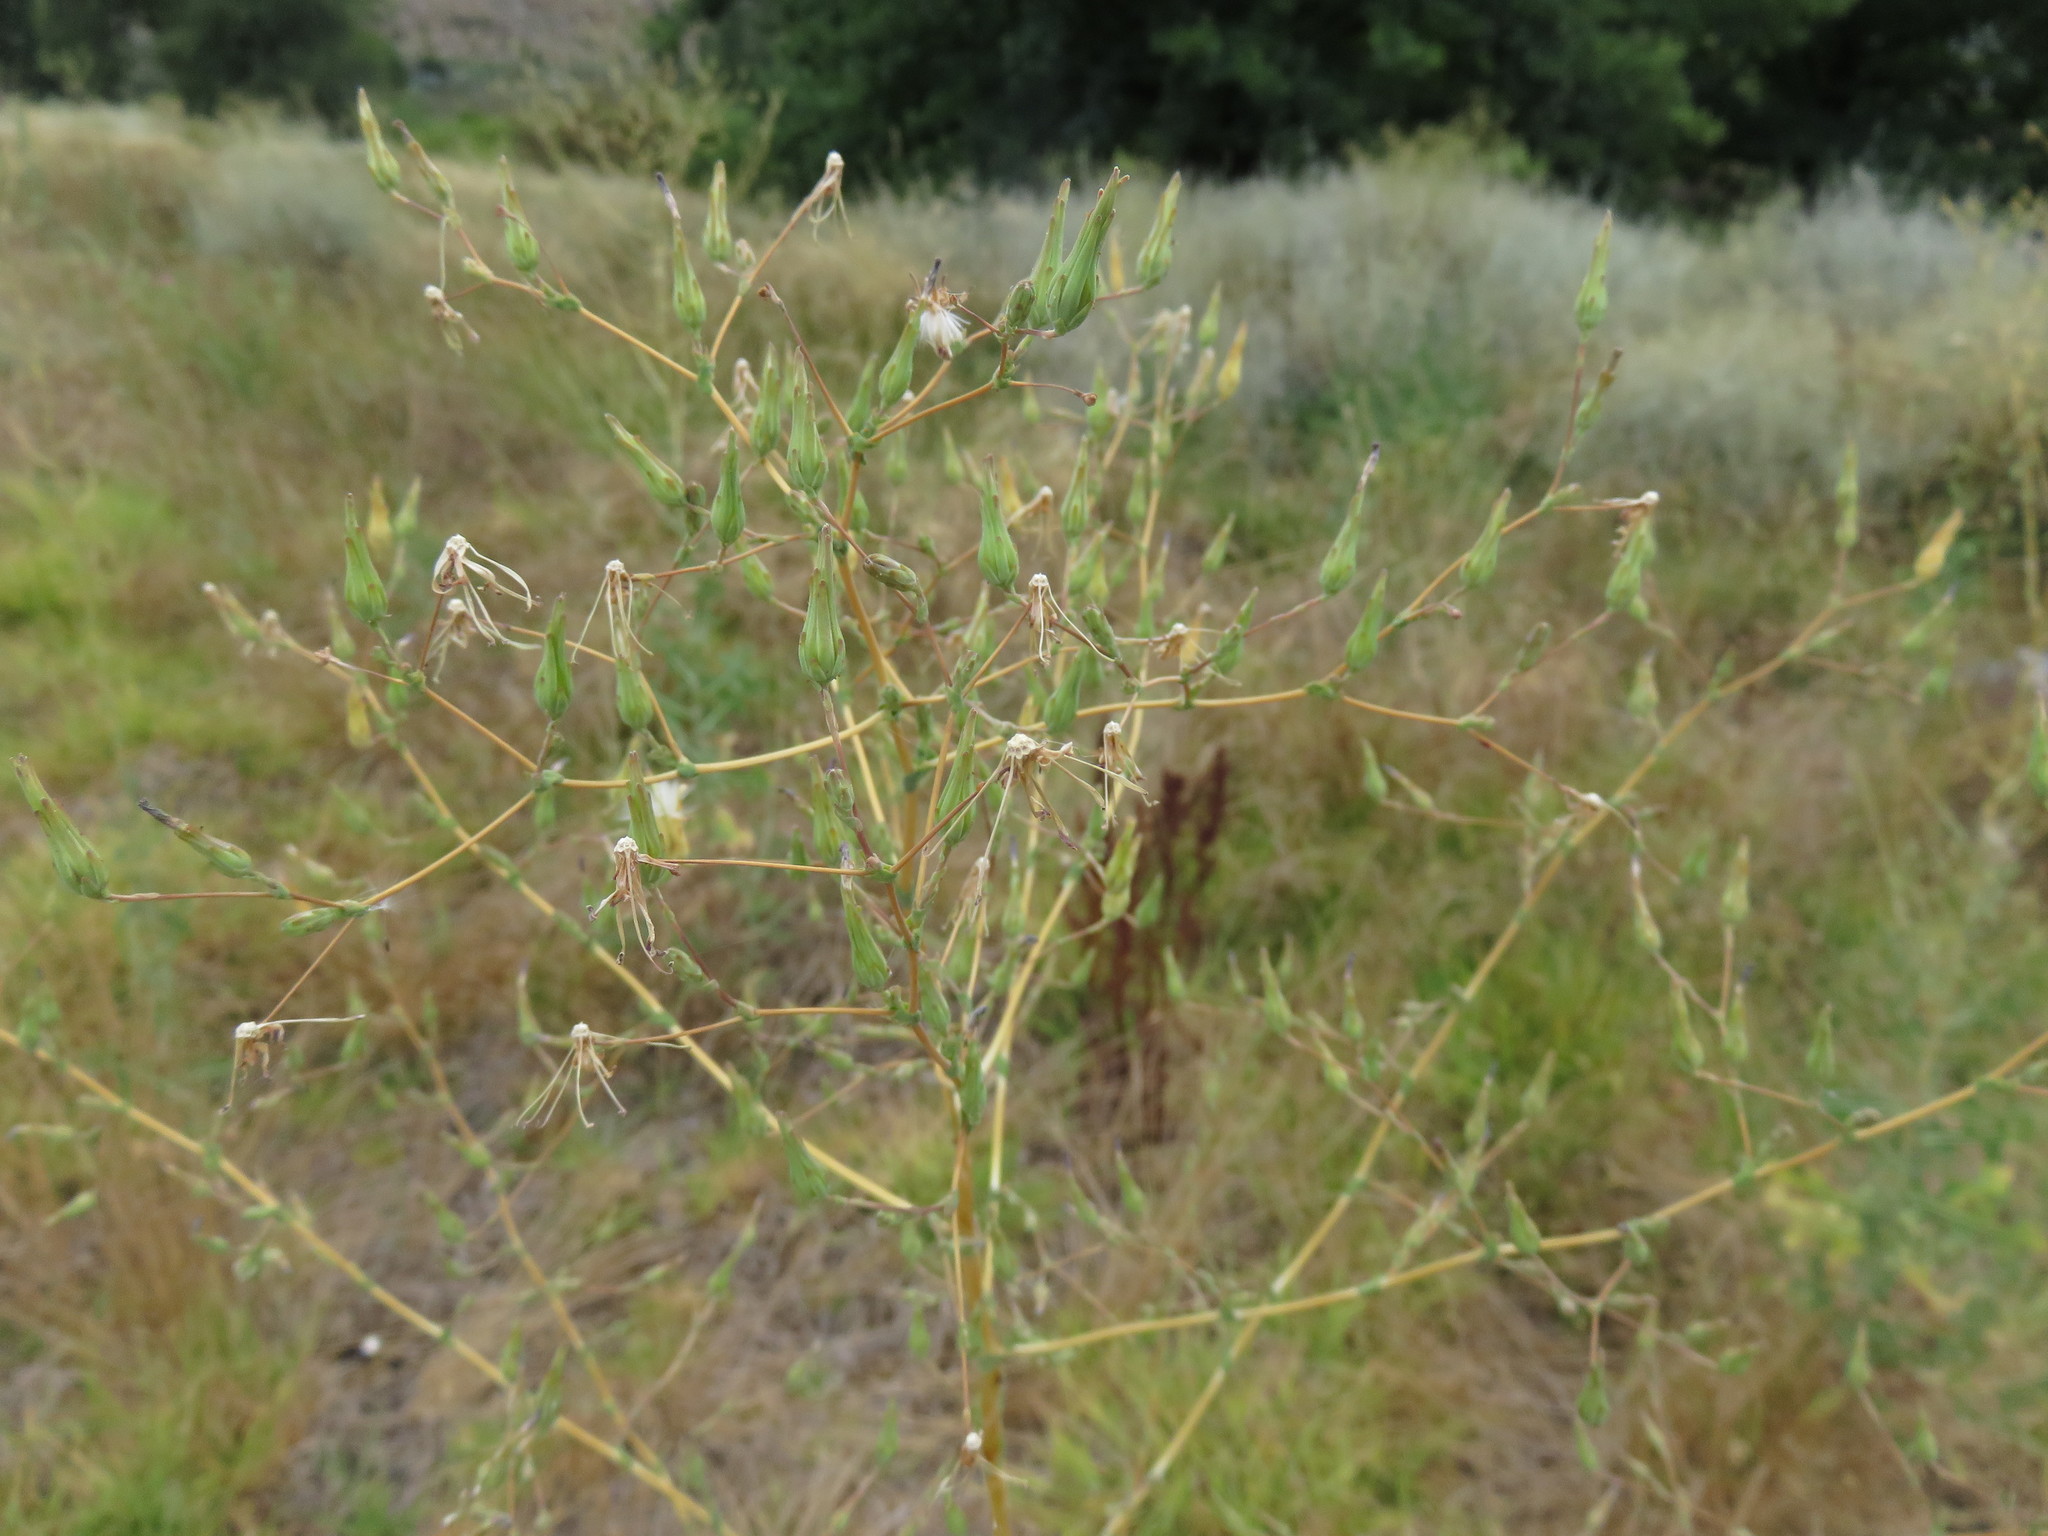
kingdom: Plantae
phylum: Tracheophyta
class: Magnoliopsida
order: Asterales
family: Asteraceae
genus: Lactuca
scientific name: Lactuca serriola
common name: Prickly lettuce
